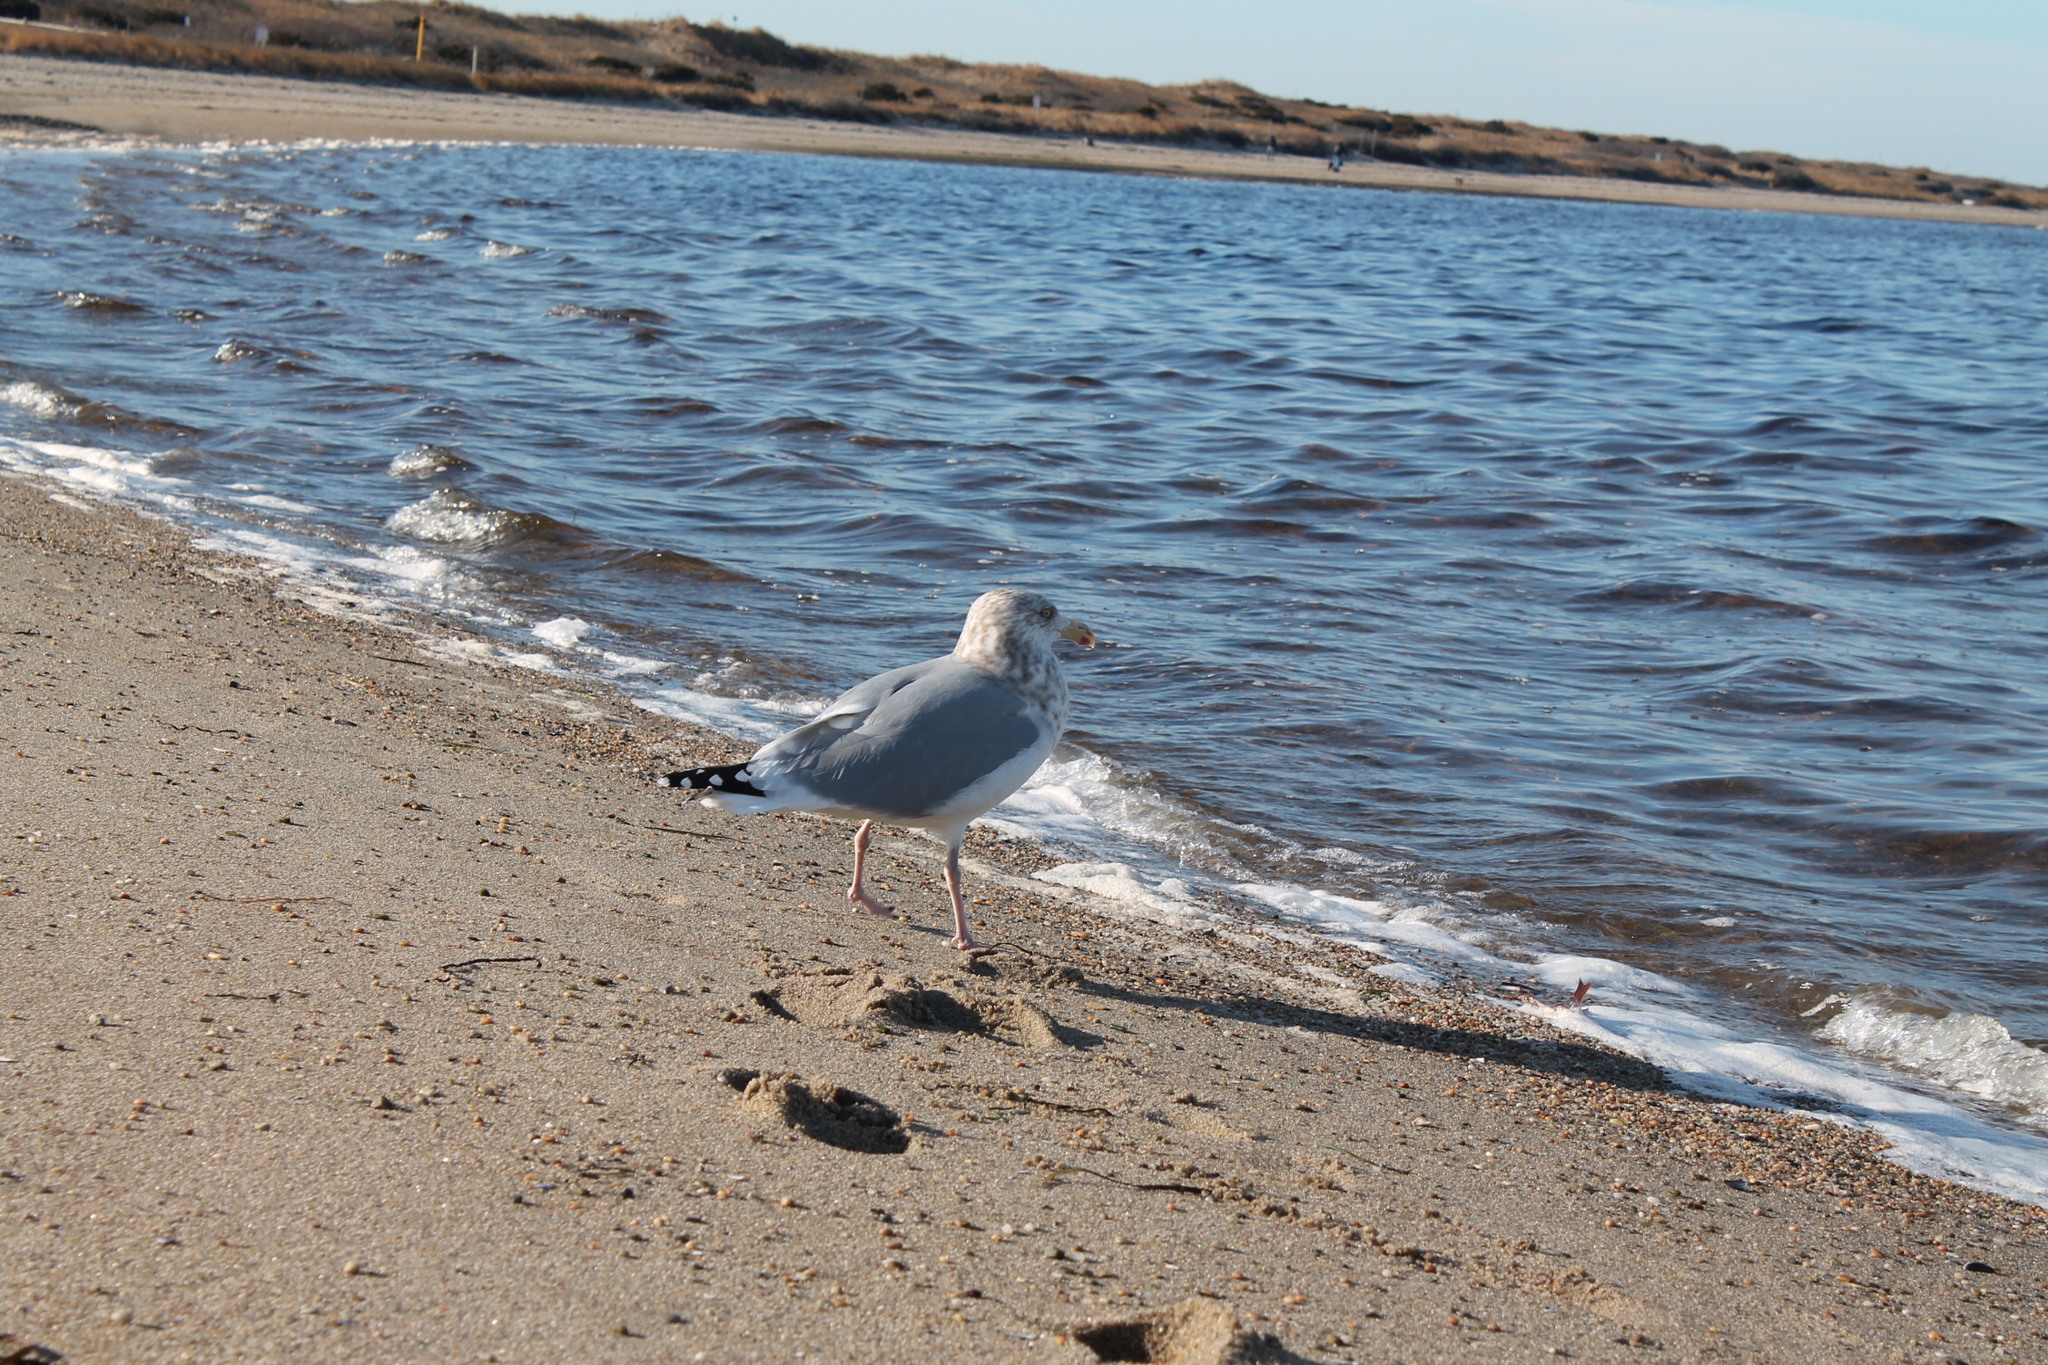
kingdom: Animalia
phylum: Chordata
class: Aves
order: Charadriiformes
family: Laridae
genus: Larus
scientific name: Larus argentatus
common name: Herring gull
